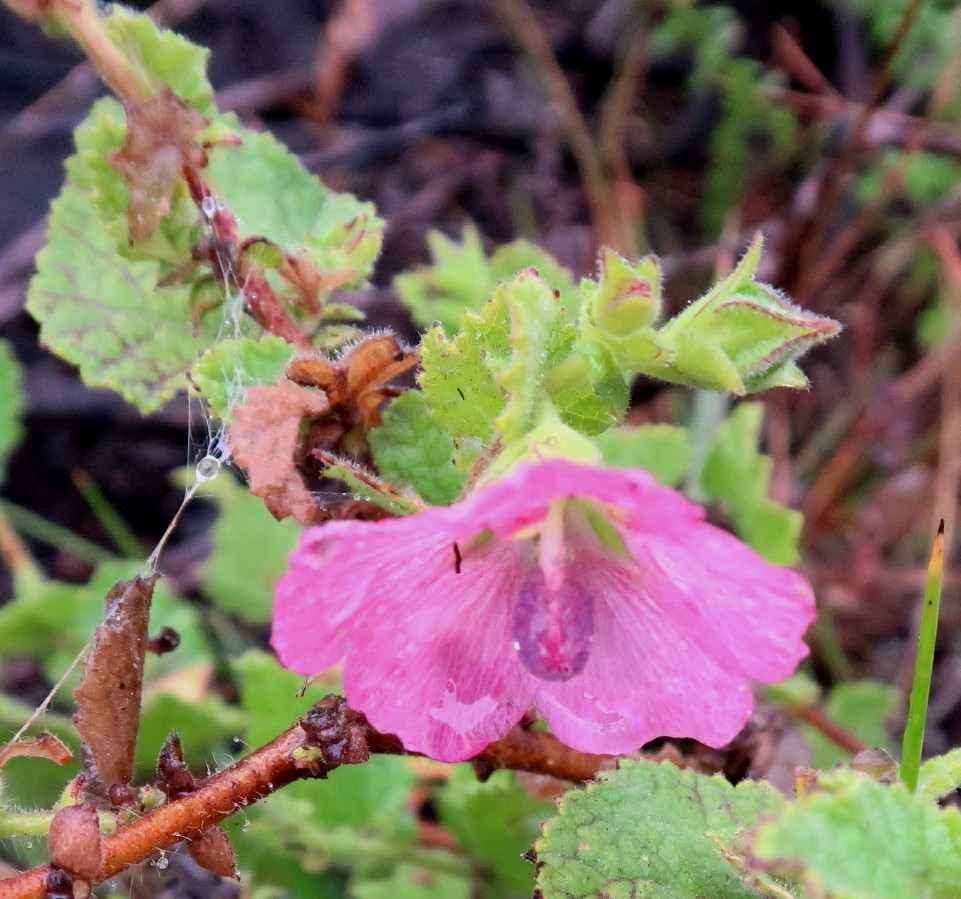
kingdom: Plantae
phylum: Tracheophyta
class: Magnoliopsida
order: Malvales
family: Malvaceae
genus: Anisodontea
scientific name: Anisodontea scabrosa
